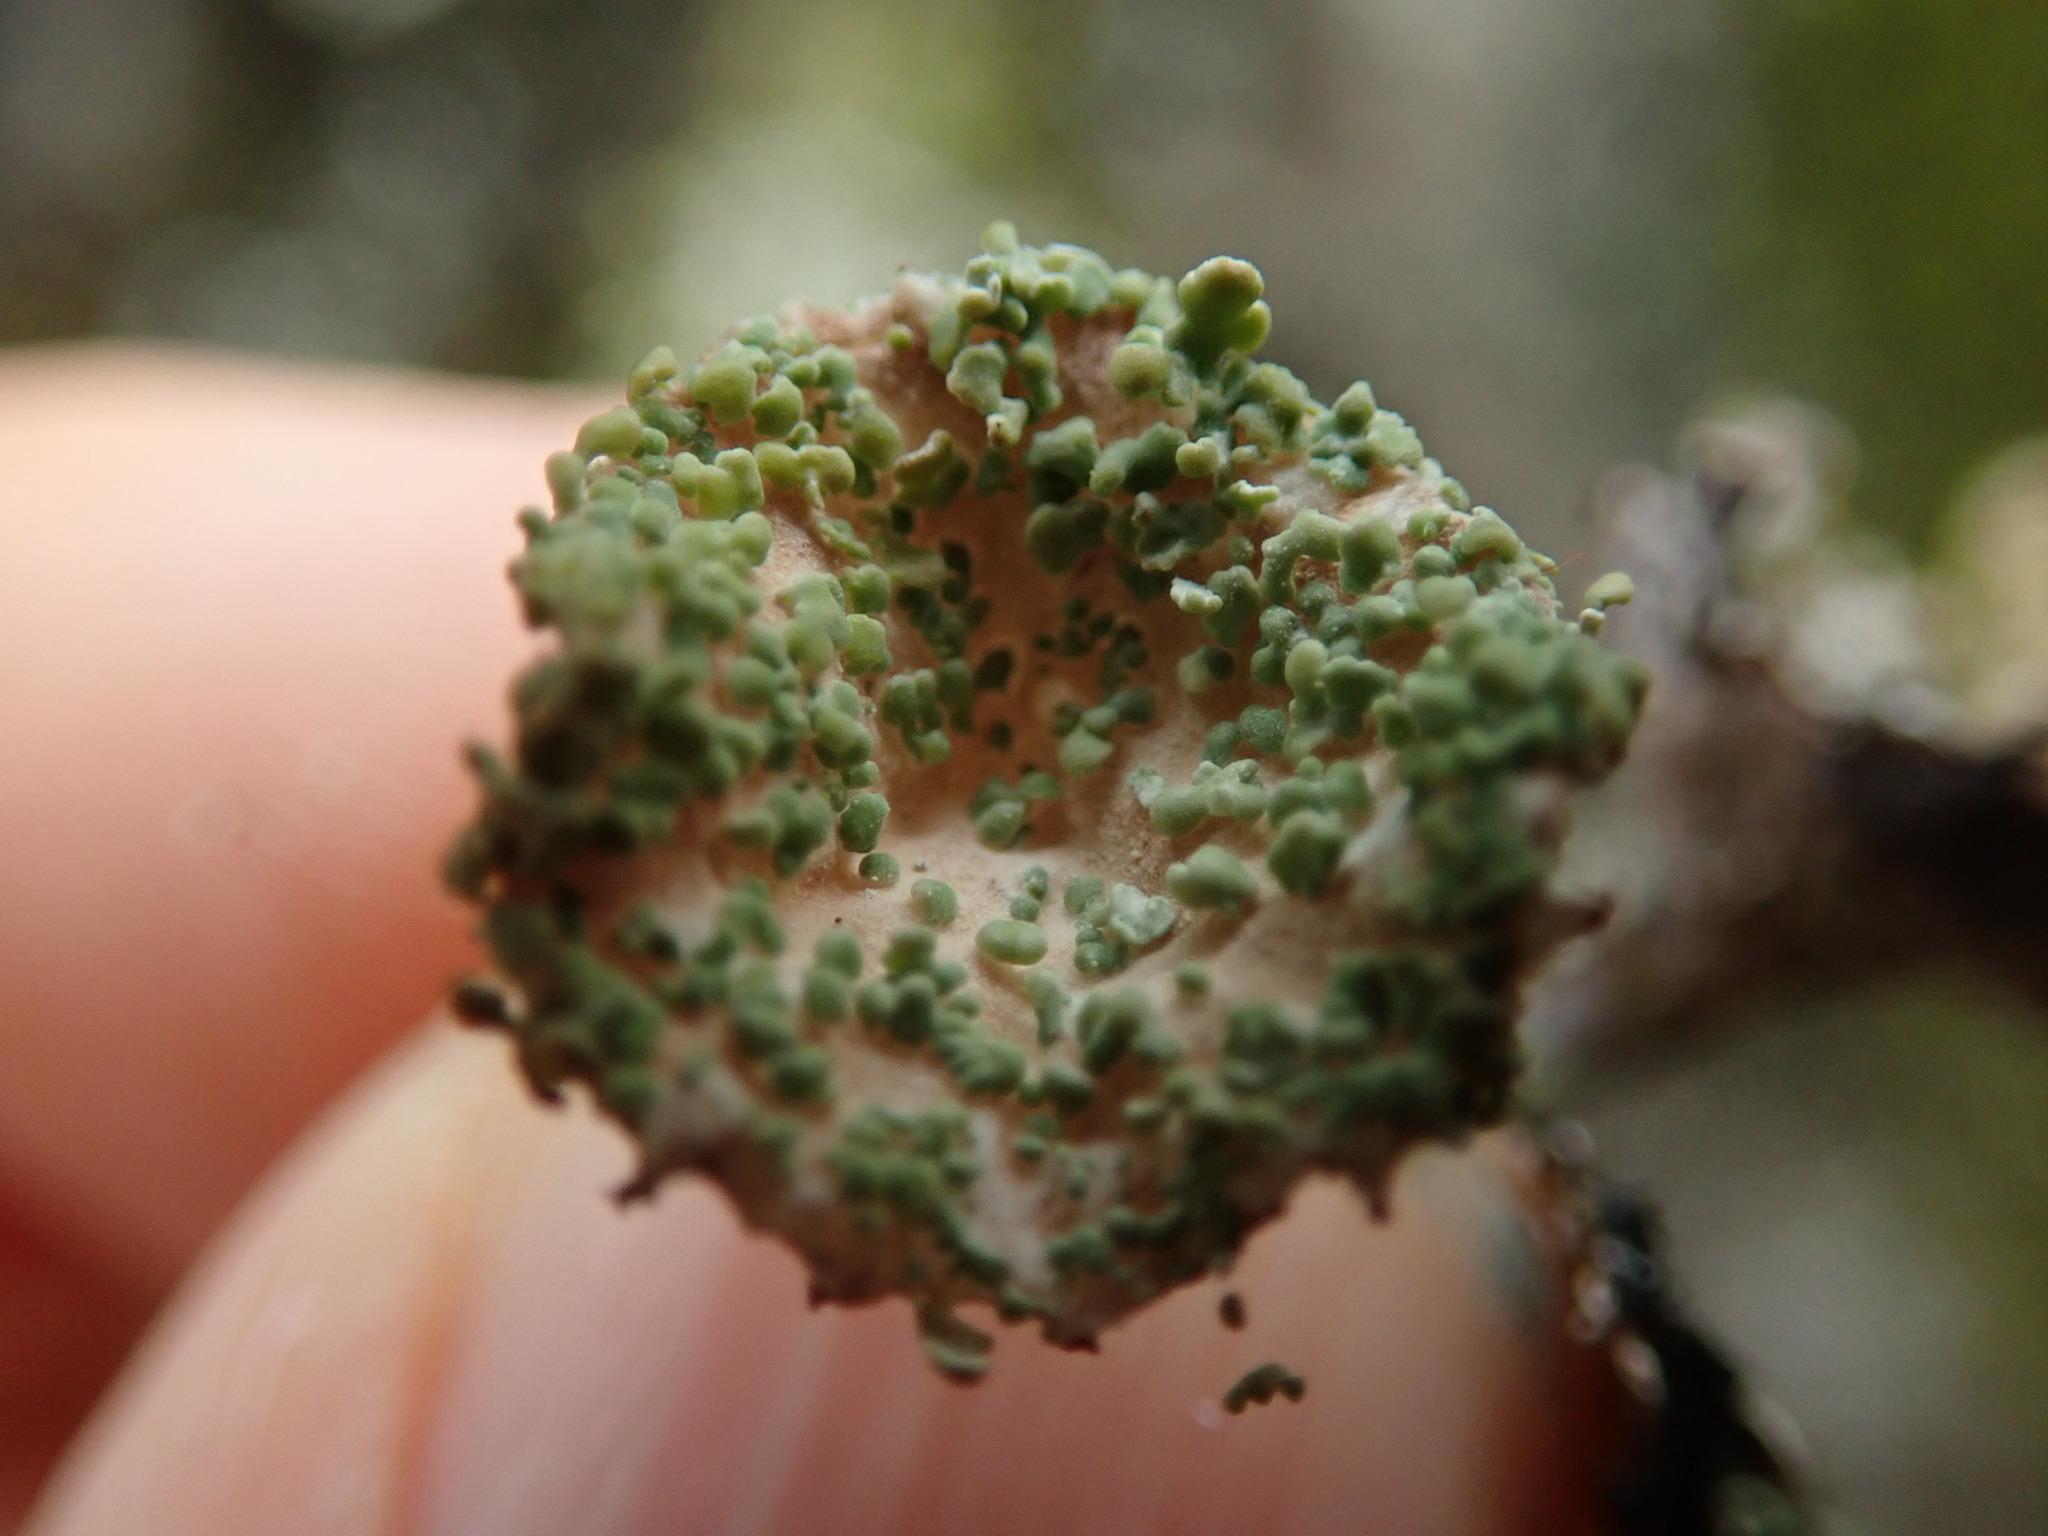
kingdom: Fungi
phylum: Ascomycota
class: Lecanoromycetes
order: Lecanorales
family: Cladoniaceae
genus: Cladonia
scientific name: Cladonia pyxidata
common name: Pebbled pixie cup
